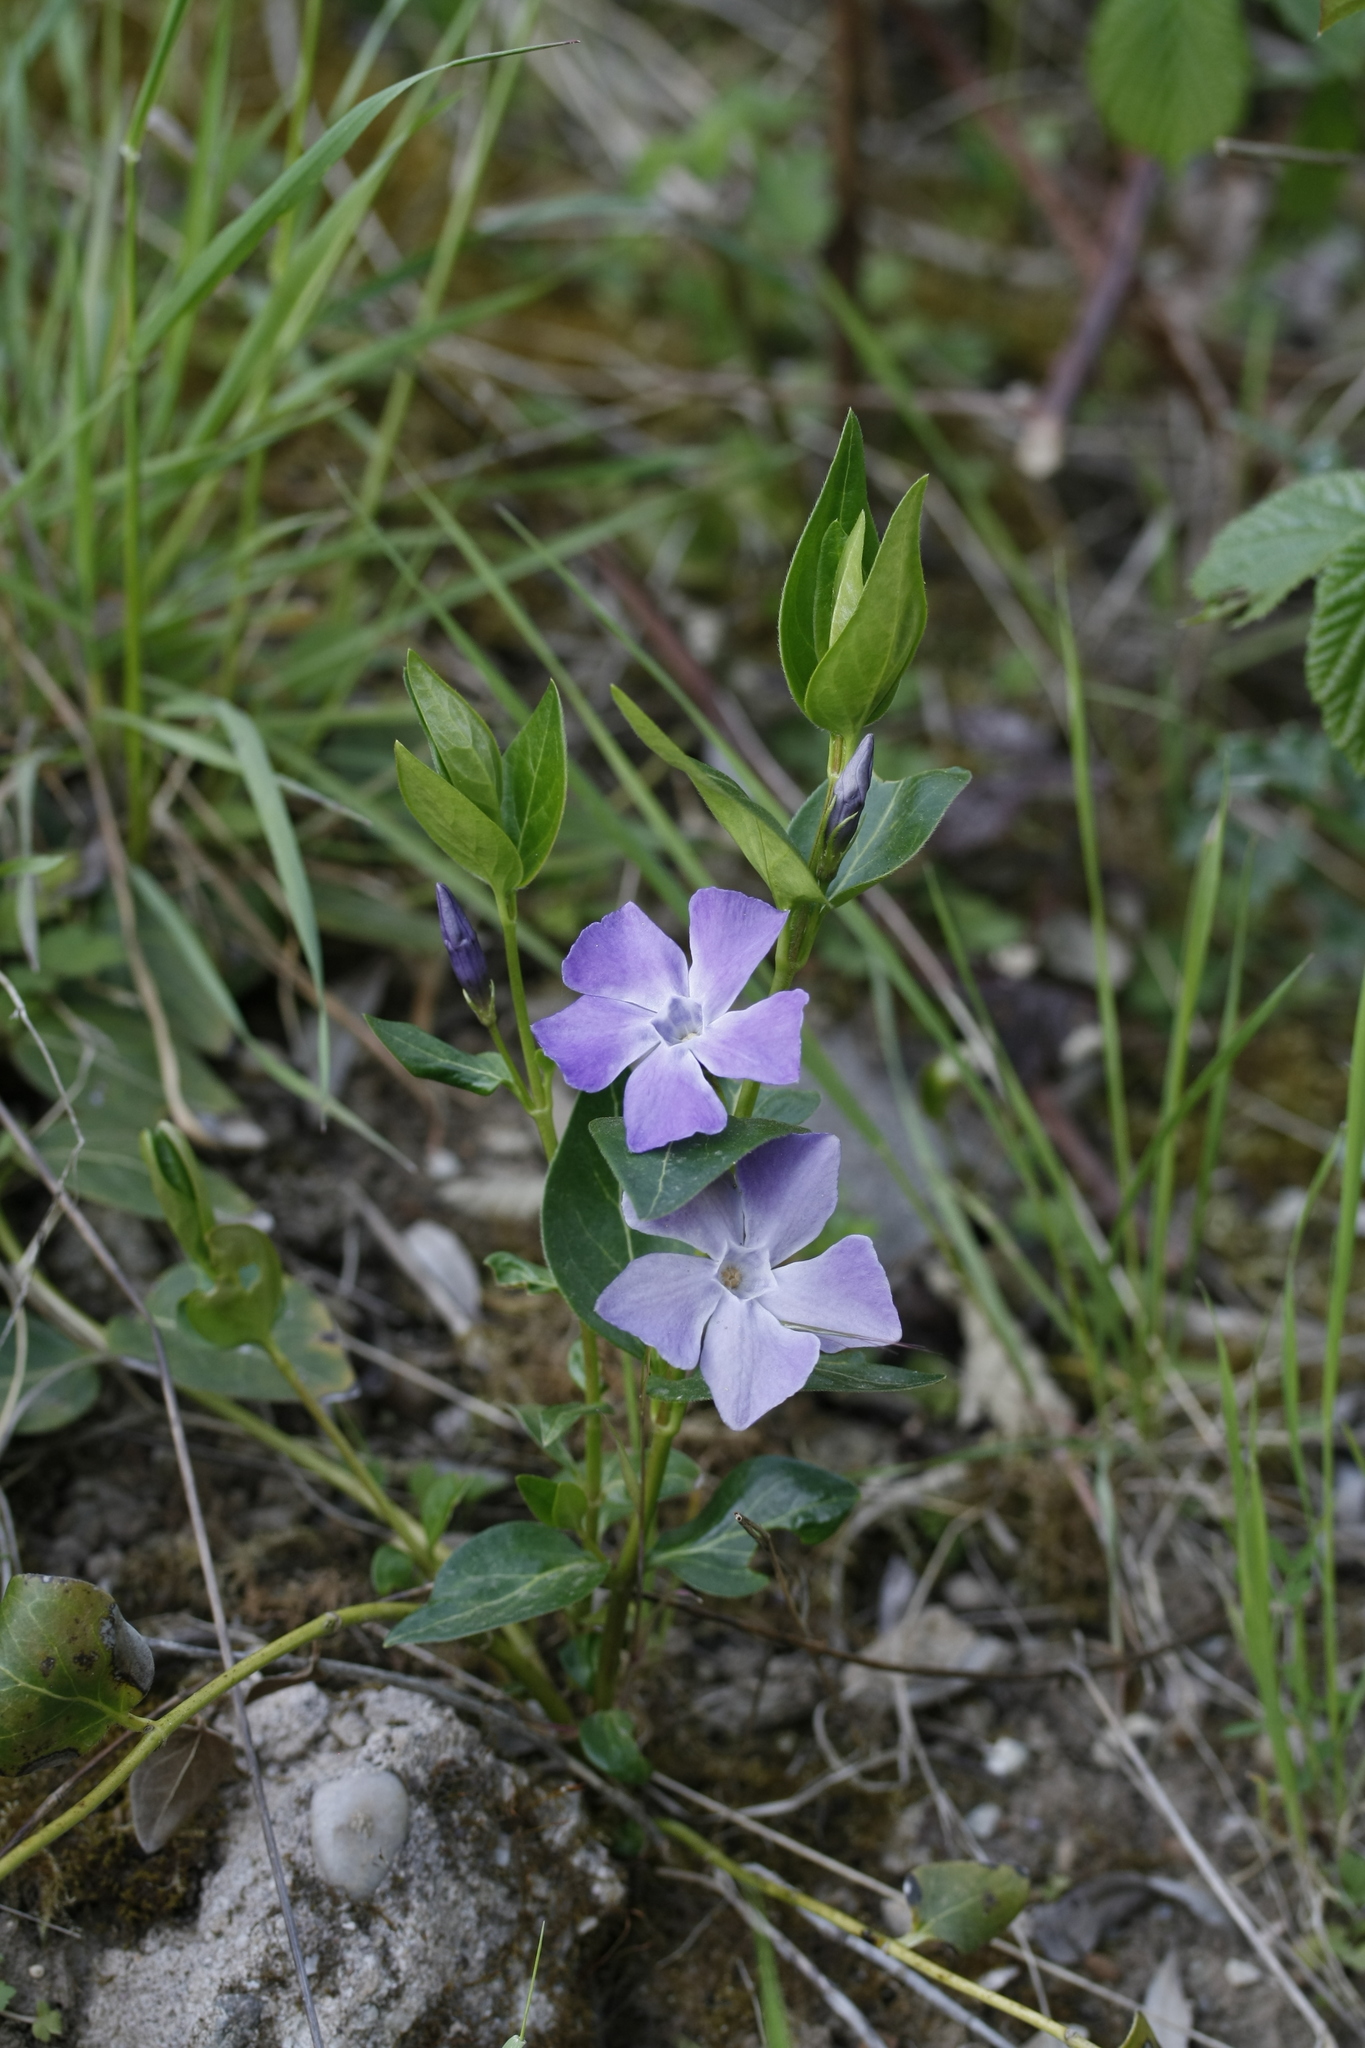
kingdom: Plantae
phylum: Tracheophyta
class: Magnoliopsida
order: Gentianales
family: Apocynaceae
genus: Vinca
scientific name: Vinca major
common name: Greater periwinkle
